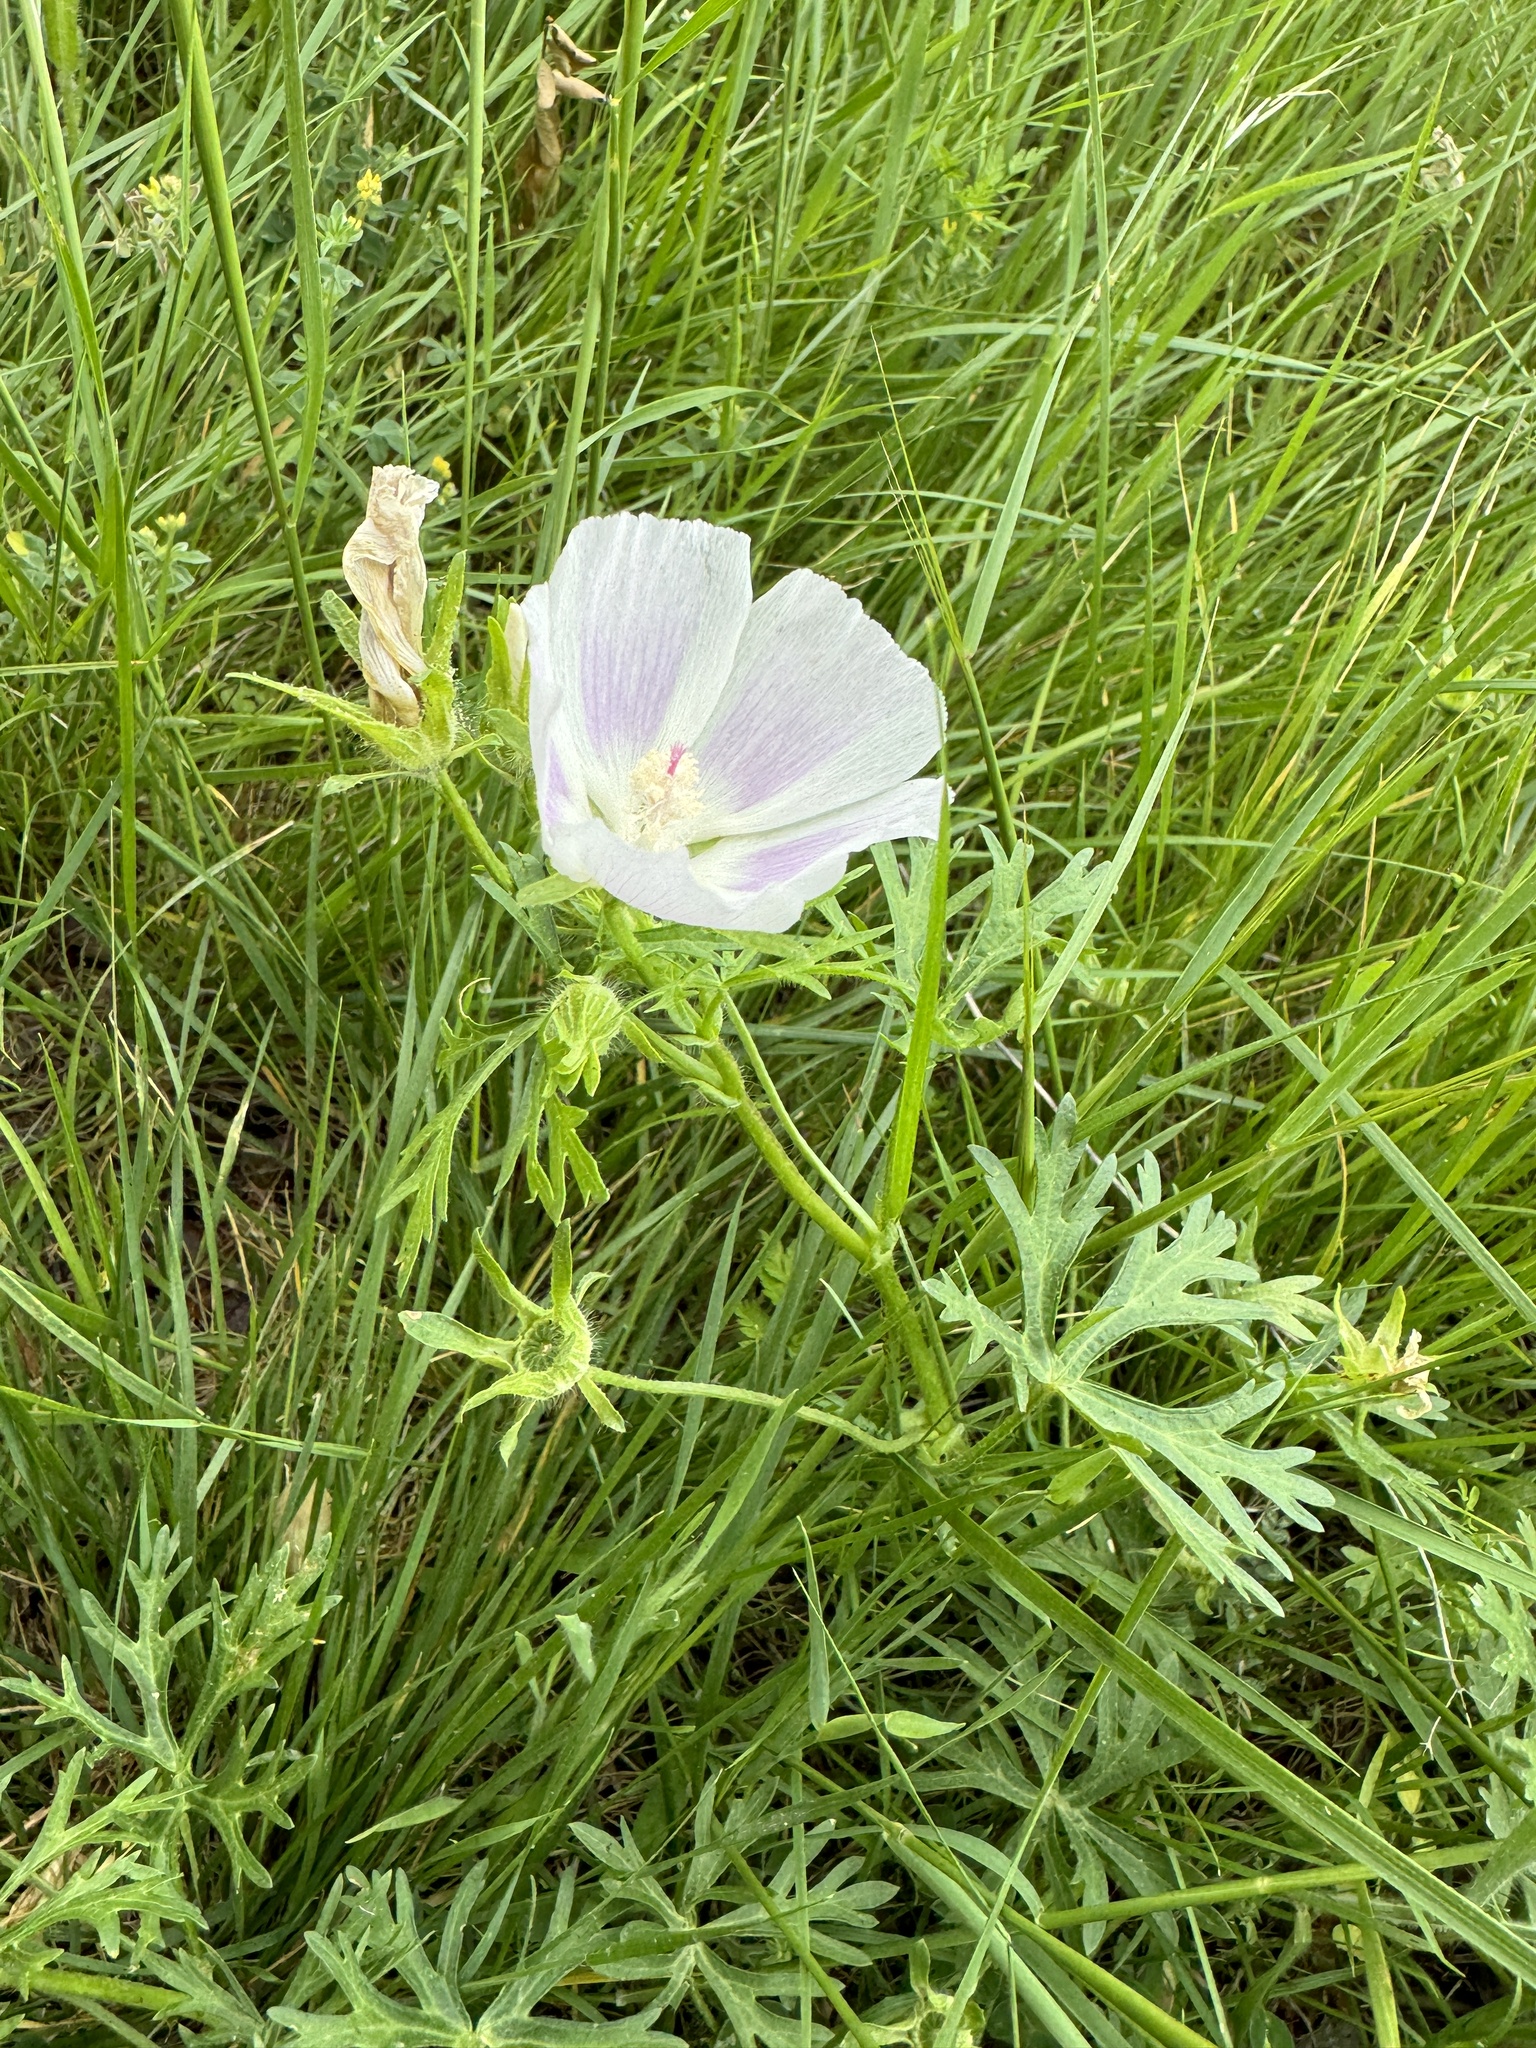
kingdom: Plantae
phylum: Tracheophyta
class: Magnoliopsida
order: Malvales
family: Malvaceae
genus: Callirhoe
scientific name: Callirhoe involucrata
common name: Purple poppy-mallow
